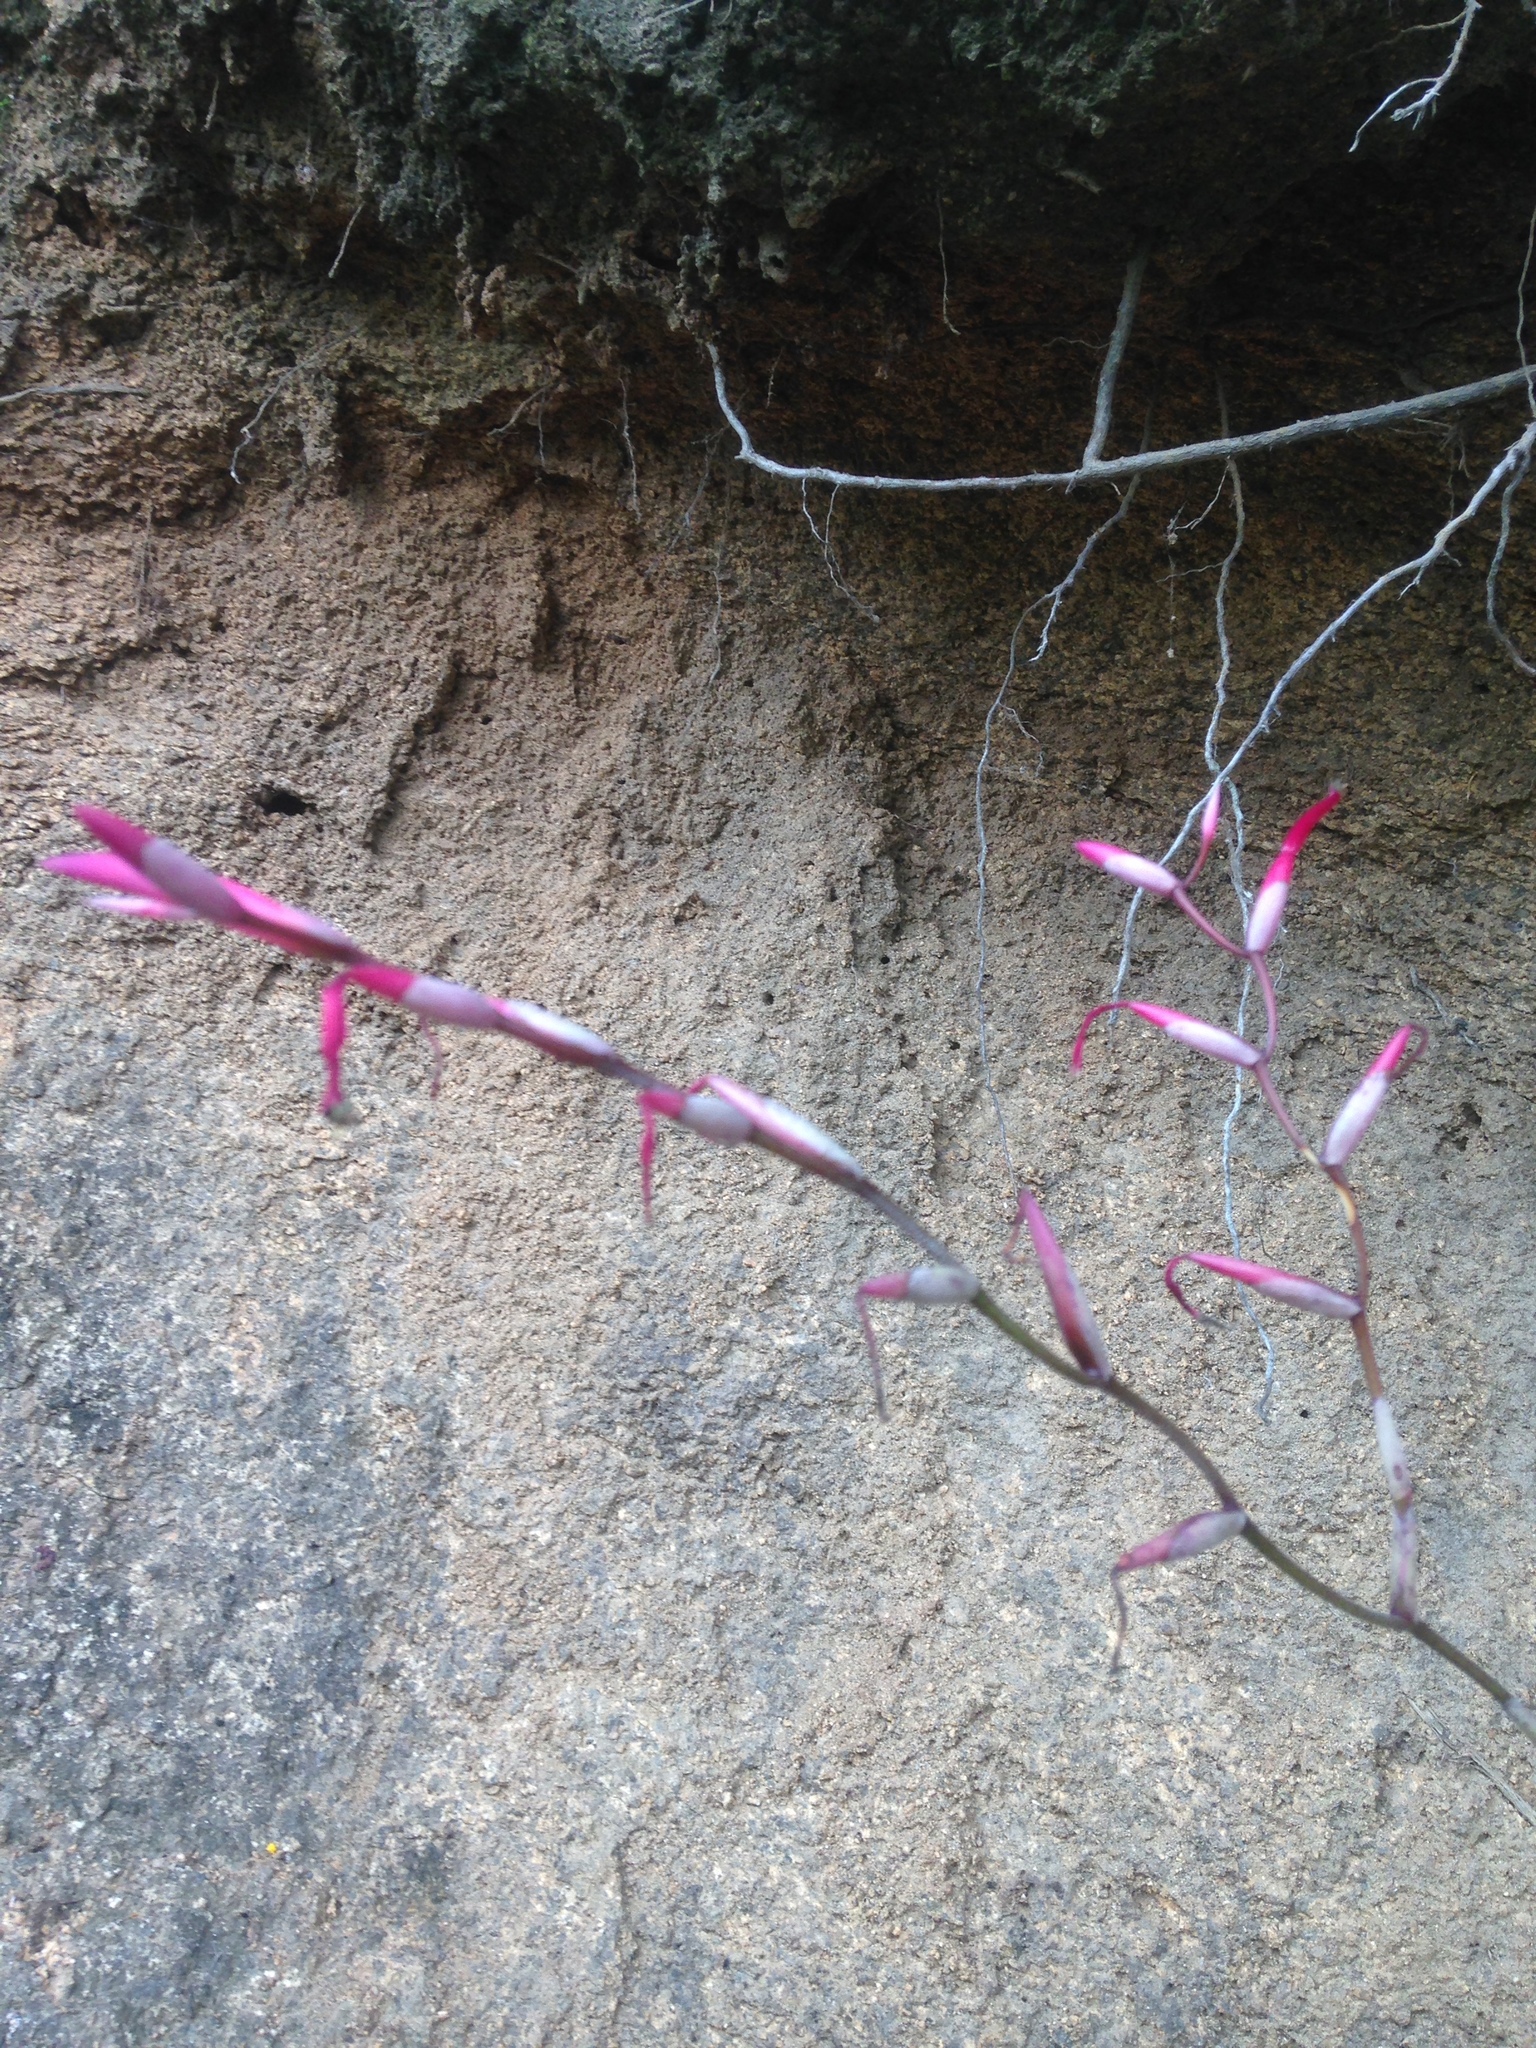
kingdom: Plantae
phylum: Tracheophyta
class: Liliopsida
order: Poales
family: Bromeliaceae
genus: Tillandsia
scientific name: Tillandsia flexuosa
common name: Banded airplant
